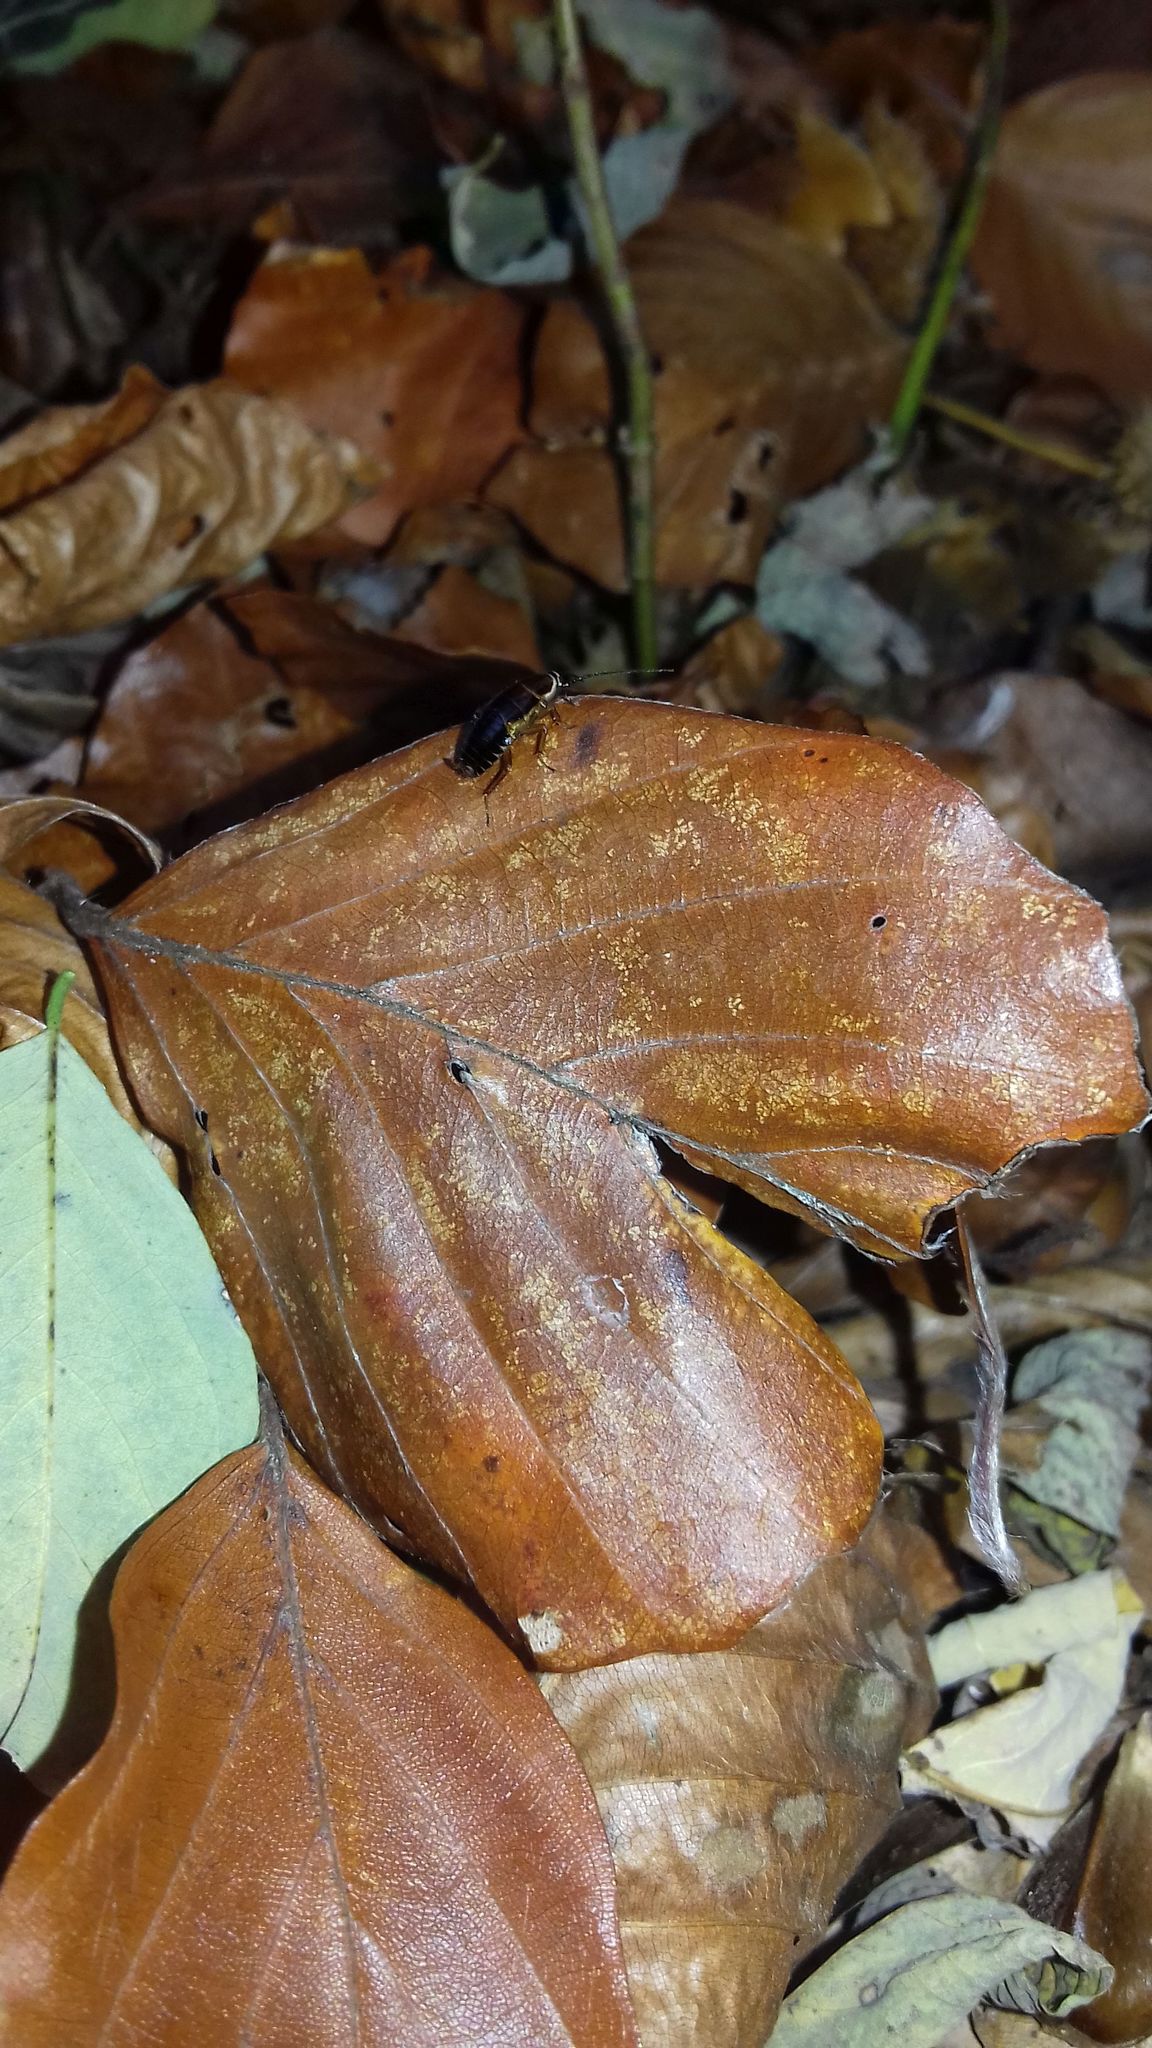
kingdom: Animalia
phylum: Arthropoda
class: Insecta
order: Blattodea
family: Ectobiidae
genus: Ectobius
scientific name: Ectobius sylvestris
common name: Forest cockroach
